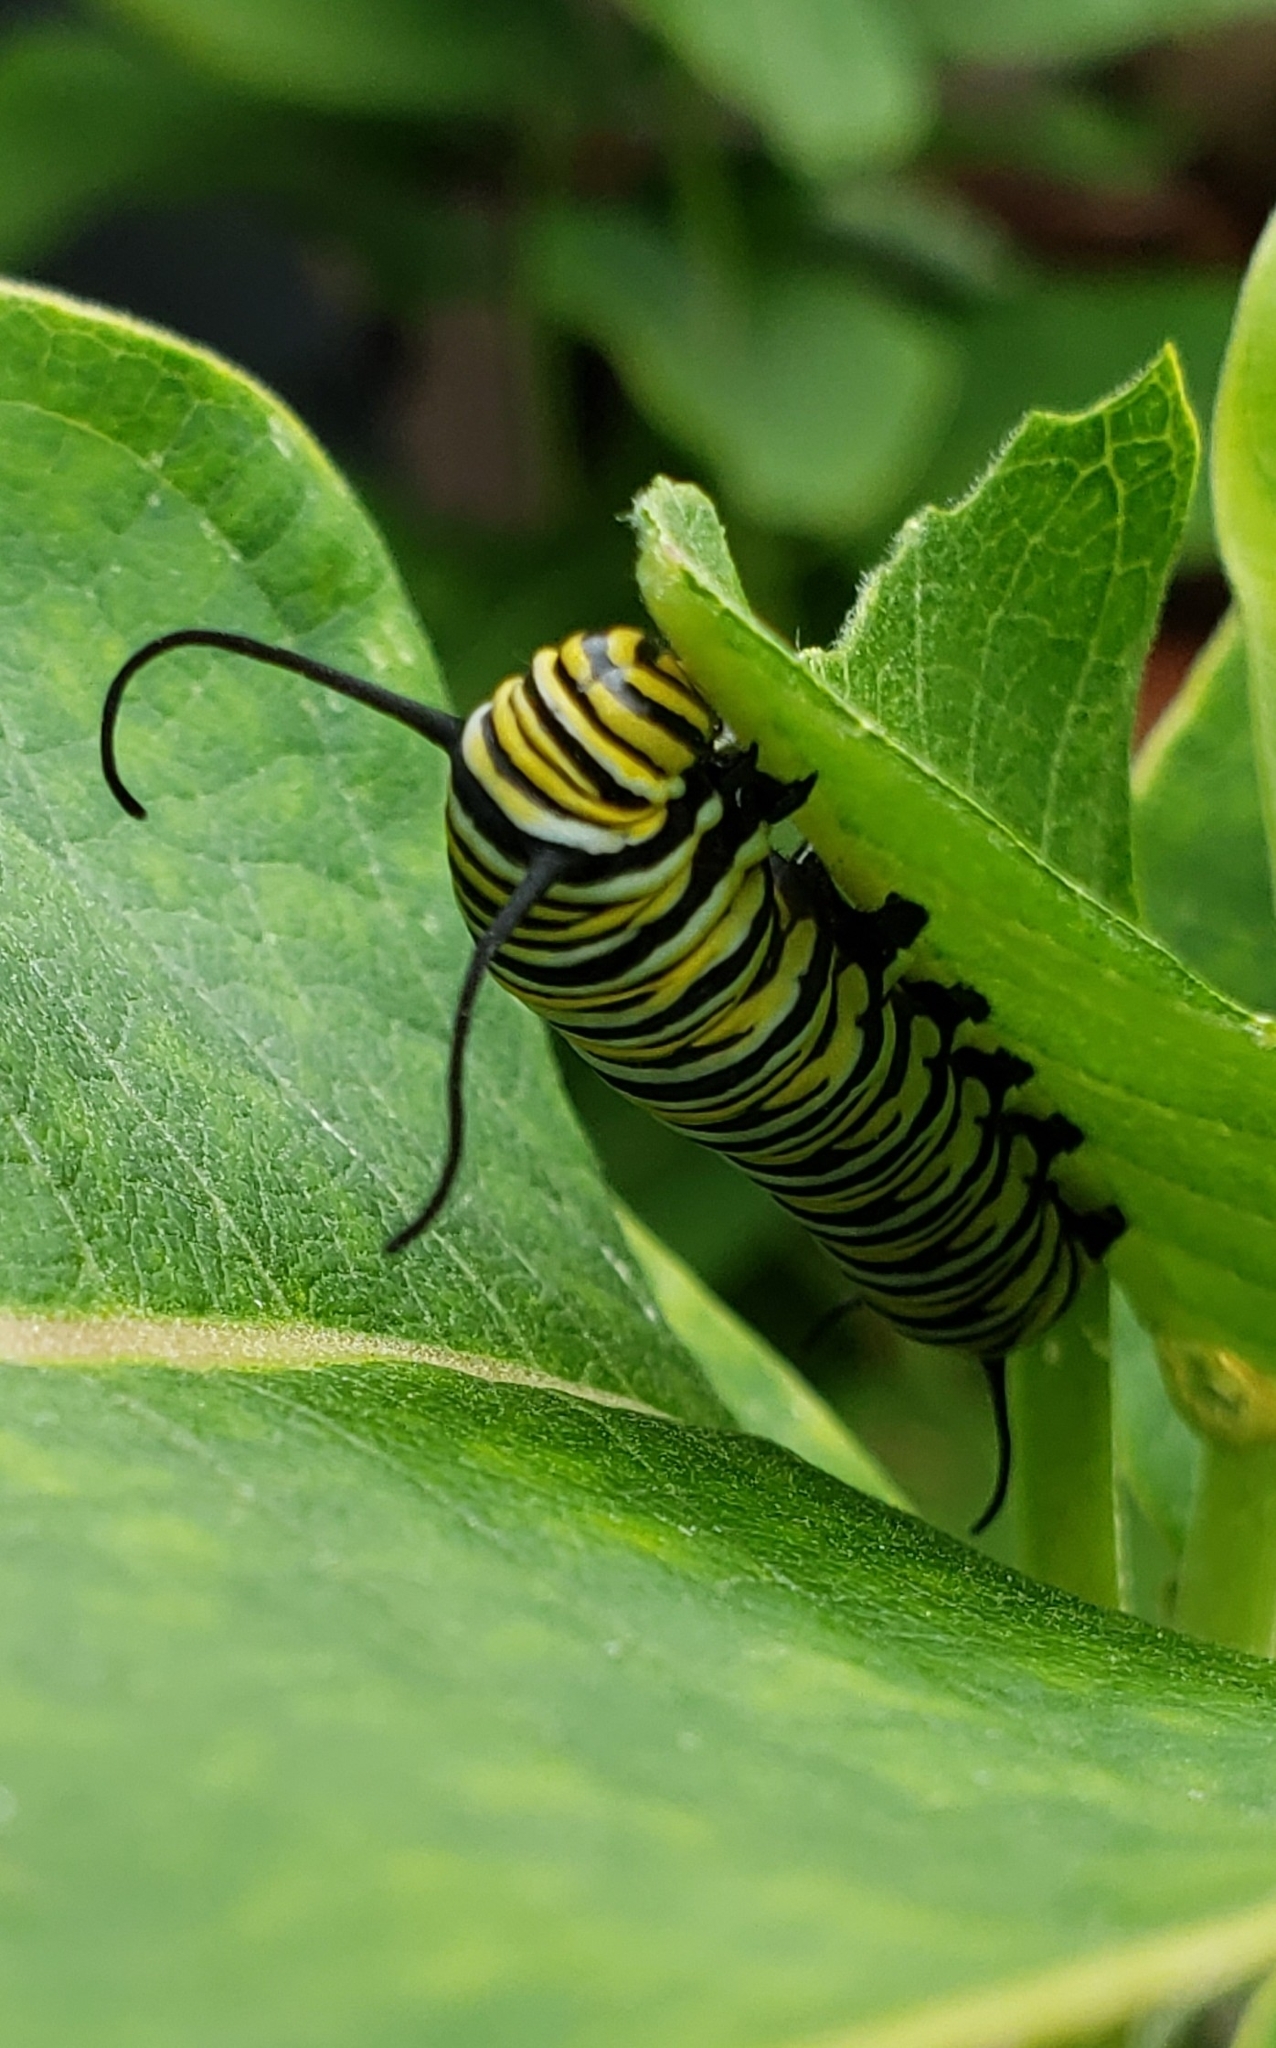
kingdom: Animalia
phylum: Arthropoda
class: Insecta
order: Lepidoptera
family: Nymphalidae
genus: Danaus
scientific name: Danaus plexippus
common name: Monarch
